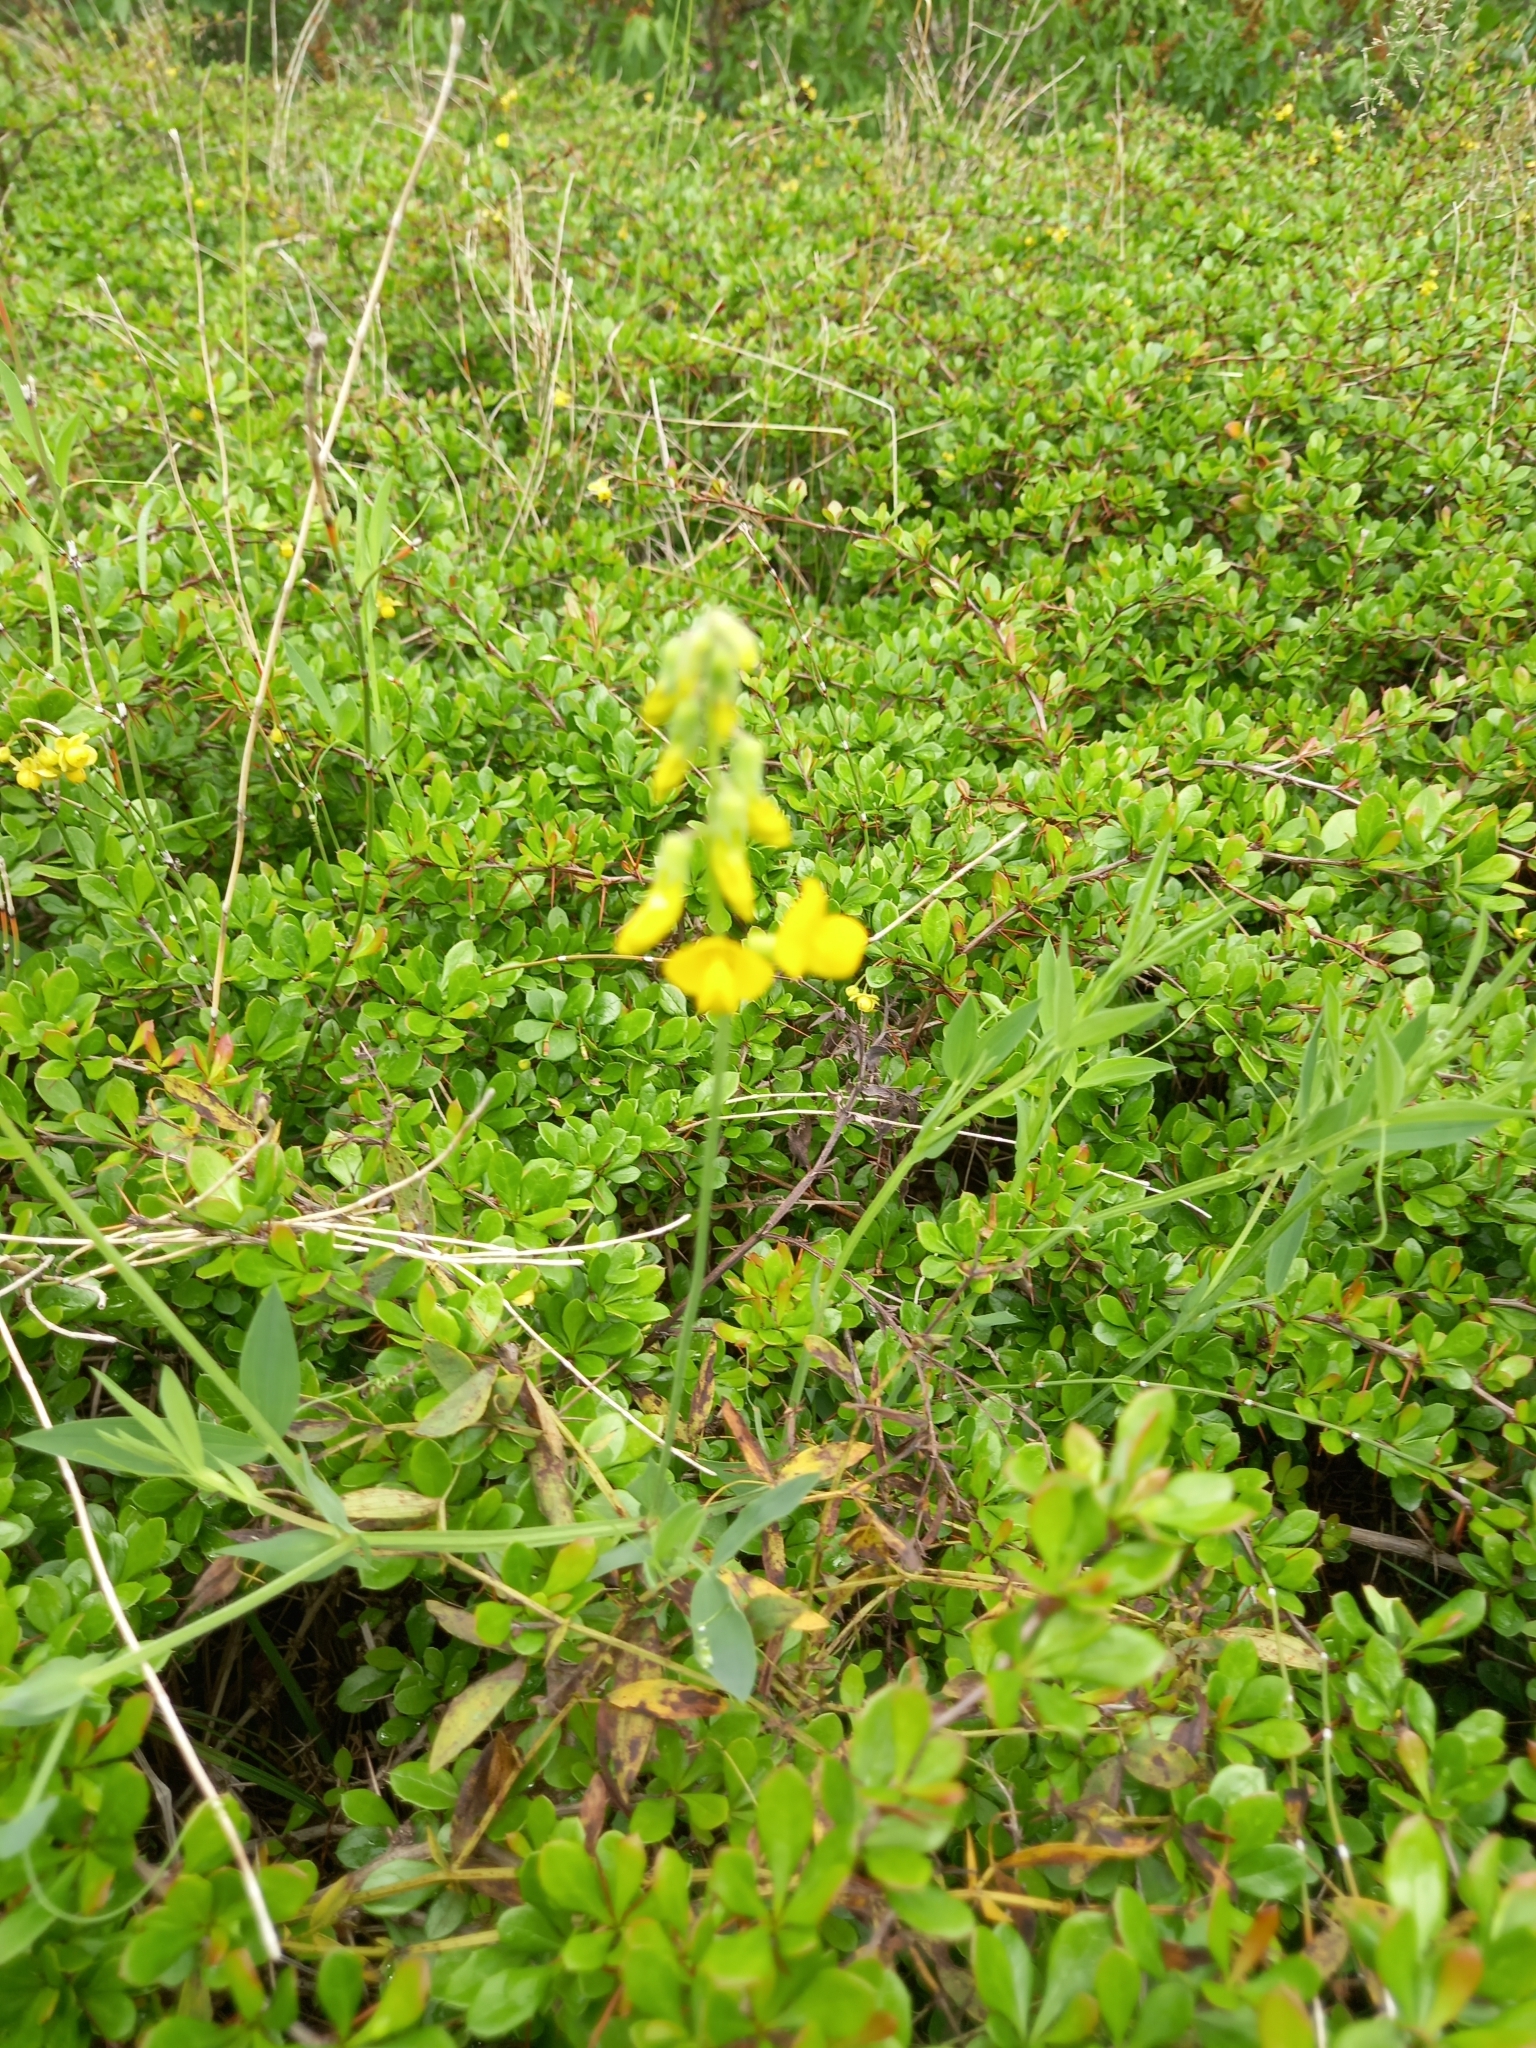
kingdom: Plantae
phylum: Tracheophyta
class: Magnoliopsida
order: Fabales
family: Fabaceae
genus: Lathyrus
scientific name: Lathyrus pratensis
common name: Meadow vetchling
